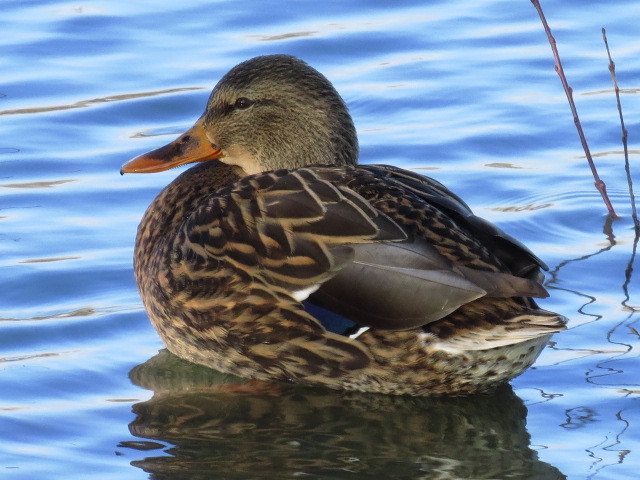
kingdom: Animalia
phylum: Chordata
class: Aves
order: Anseriformes
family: Anatidae
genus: Anas
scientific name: Anas platyrhynchos
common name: Mallard
